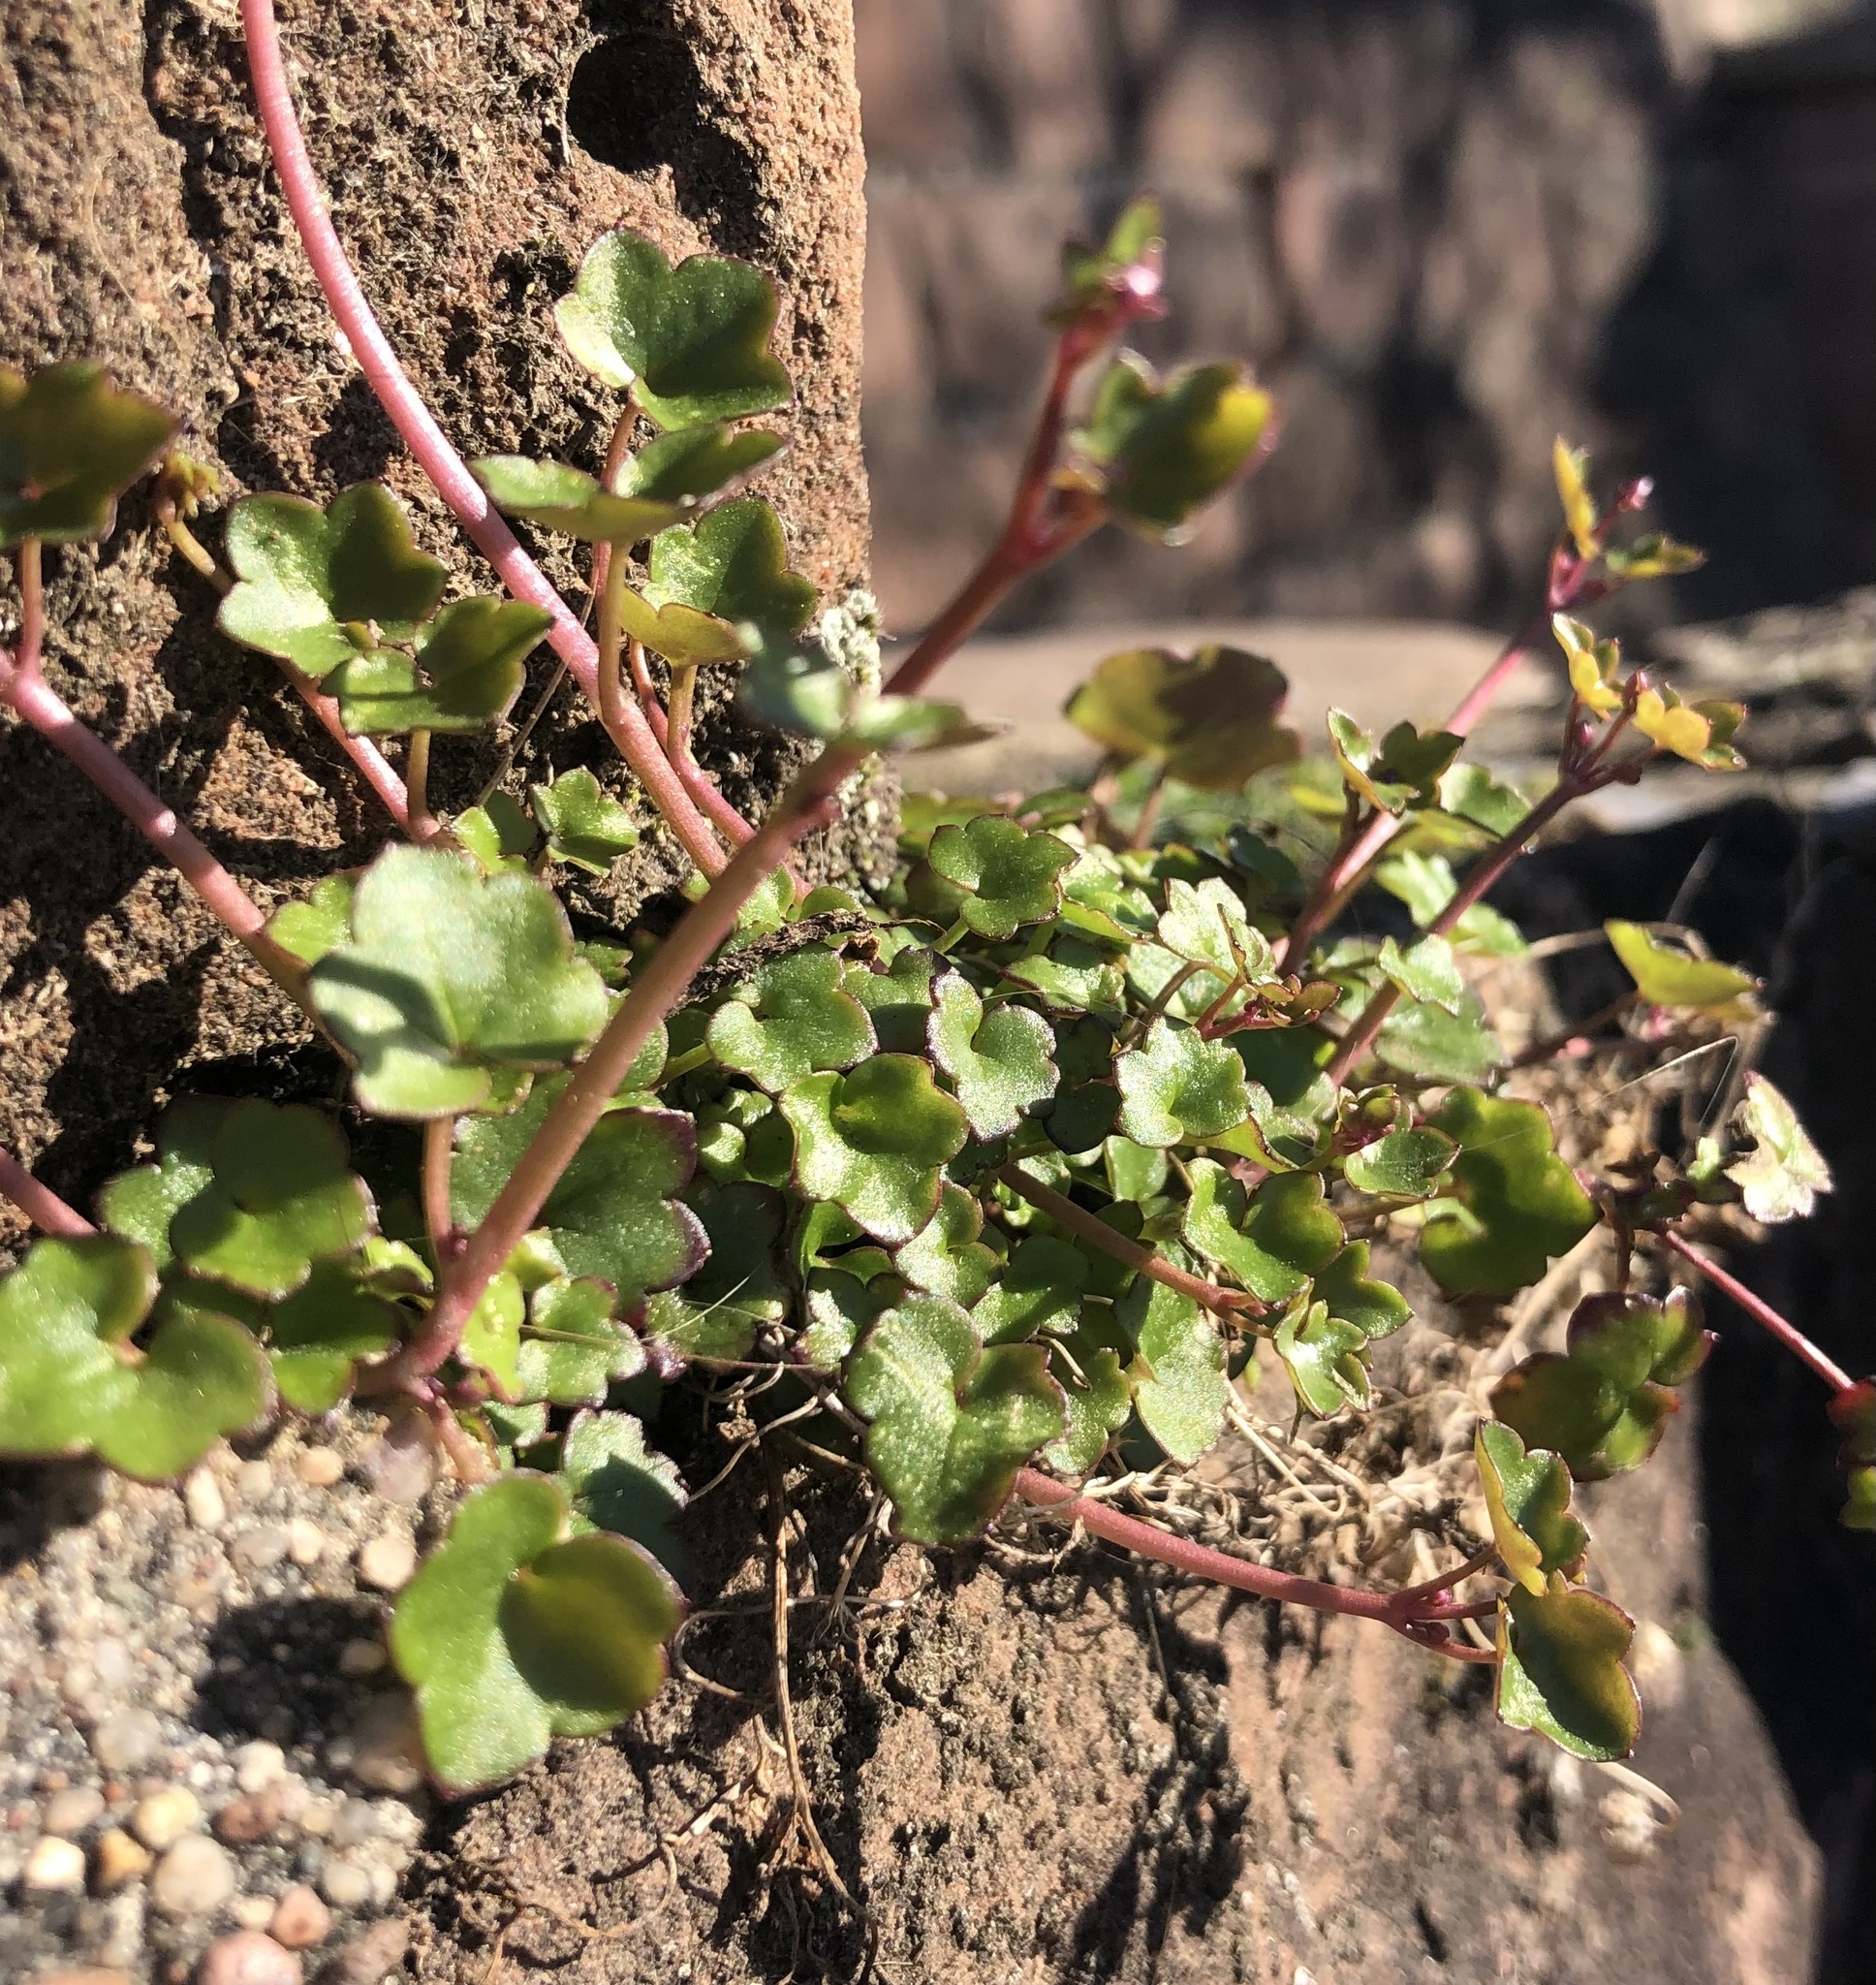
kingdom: Plantae
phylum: Tracheophyta
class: Magnoliopsida
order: Lamiales
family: Plantaginaceae
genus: Cymbalaria
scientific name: Cymbalaria muralis
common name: Ivy-leaved toadflax
